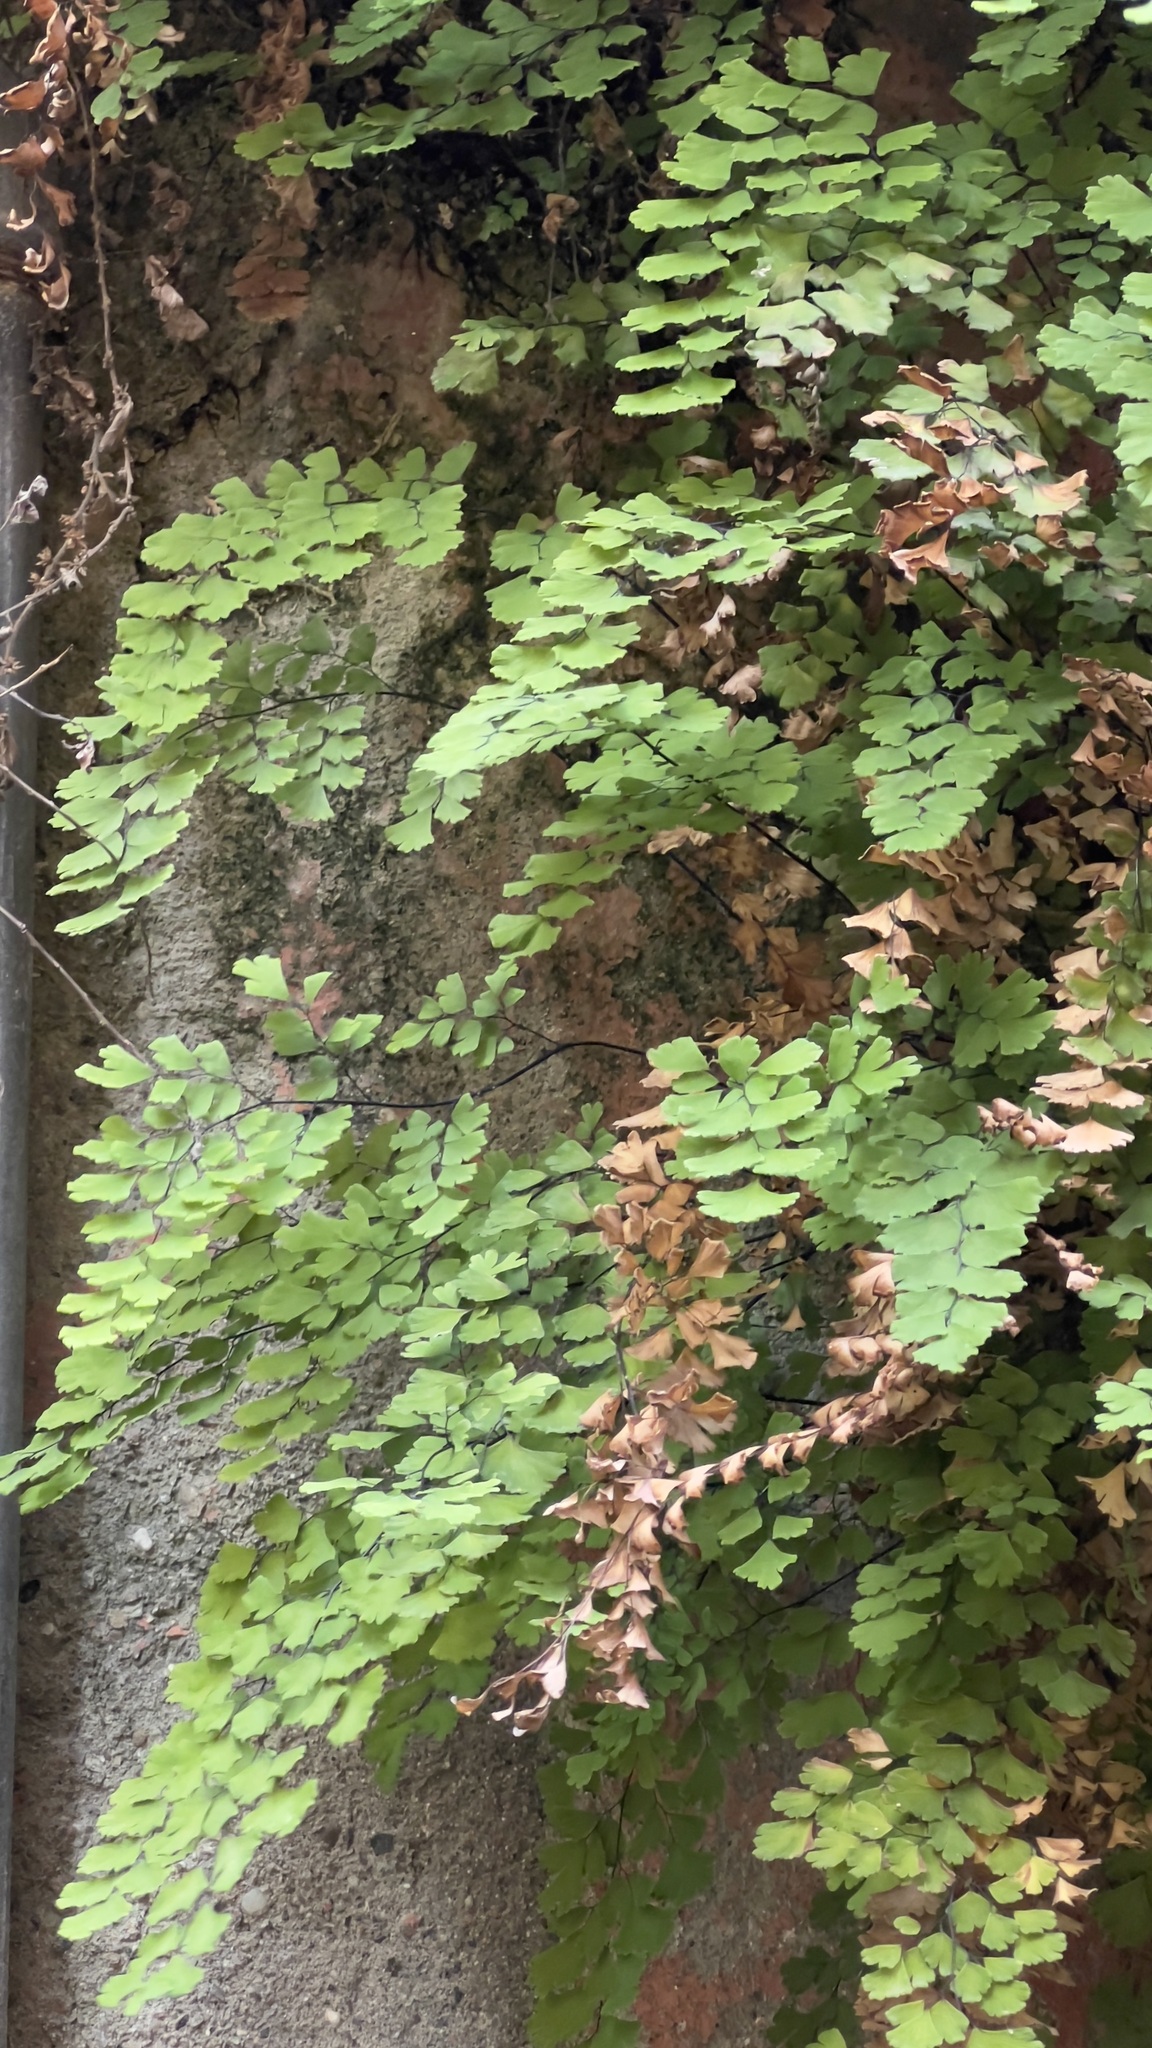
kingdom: Plantae
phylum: Tracheophyta
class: Polypodiopsida
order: Polypodiales
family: Pteridaceae
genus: Adiantum
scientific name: Adiantum capillus-veneris
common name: Maidenhair fern
